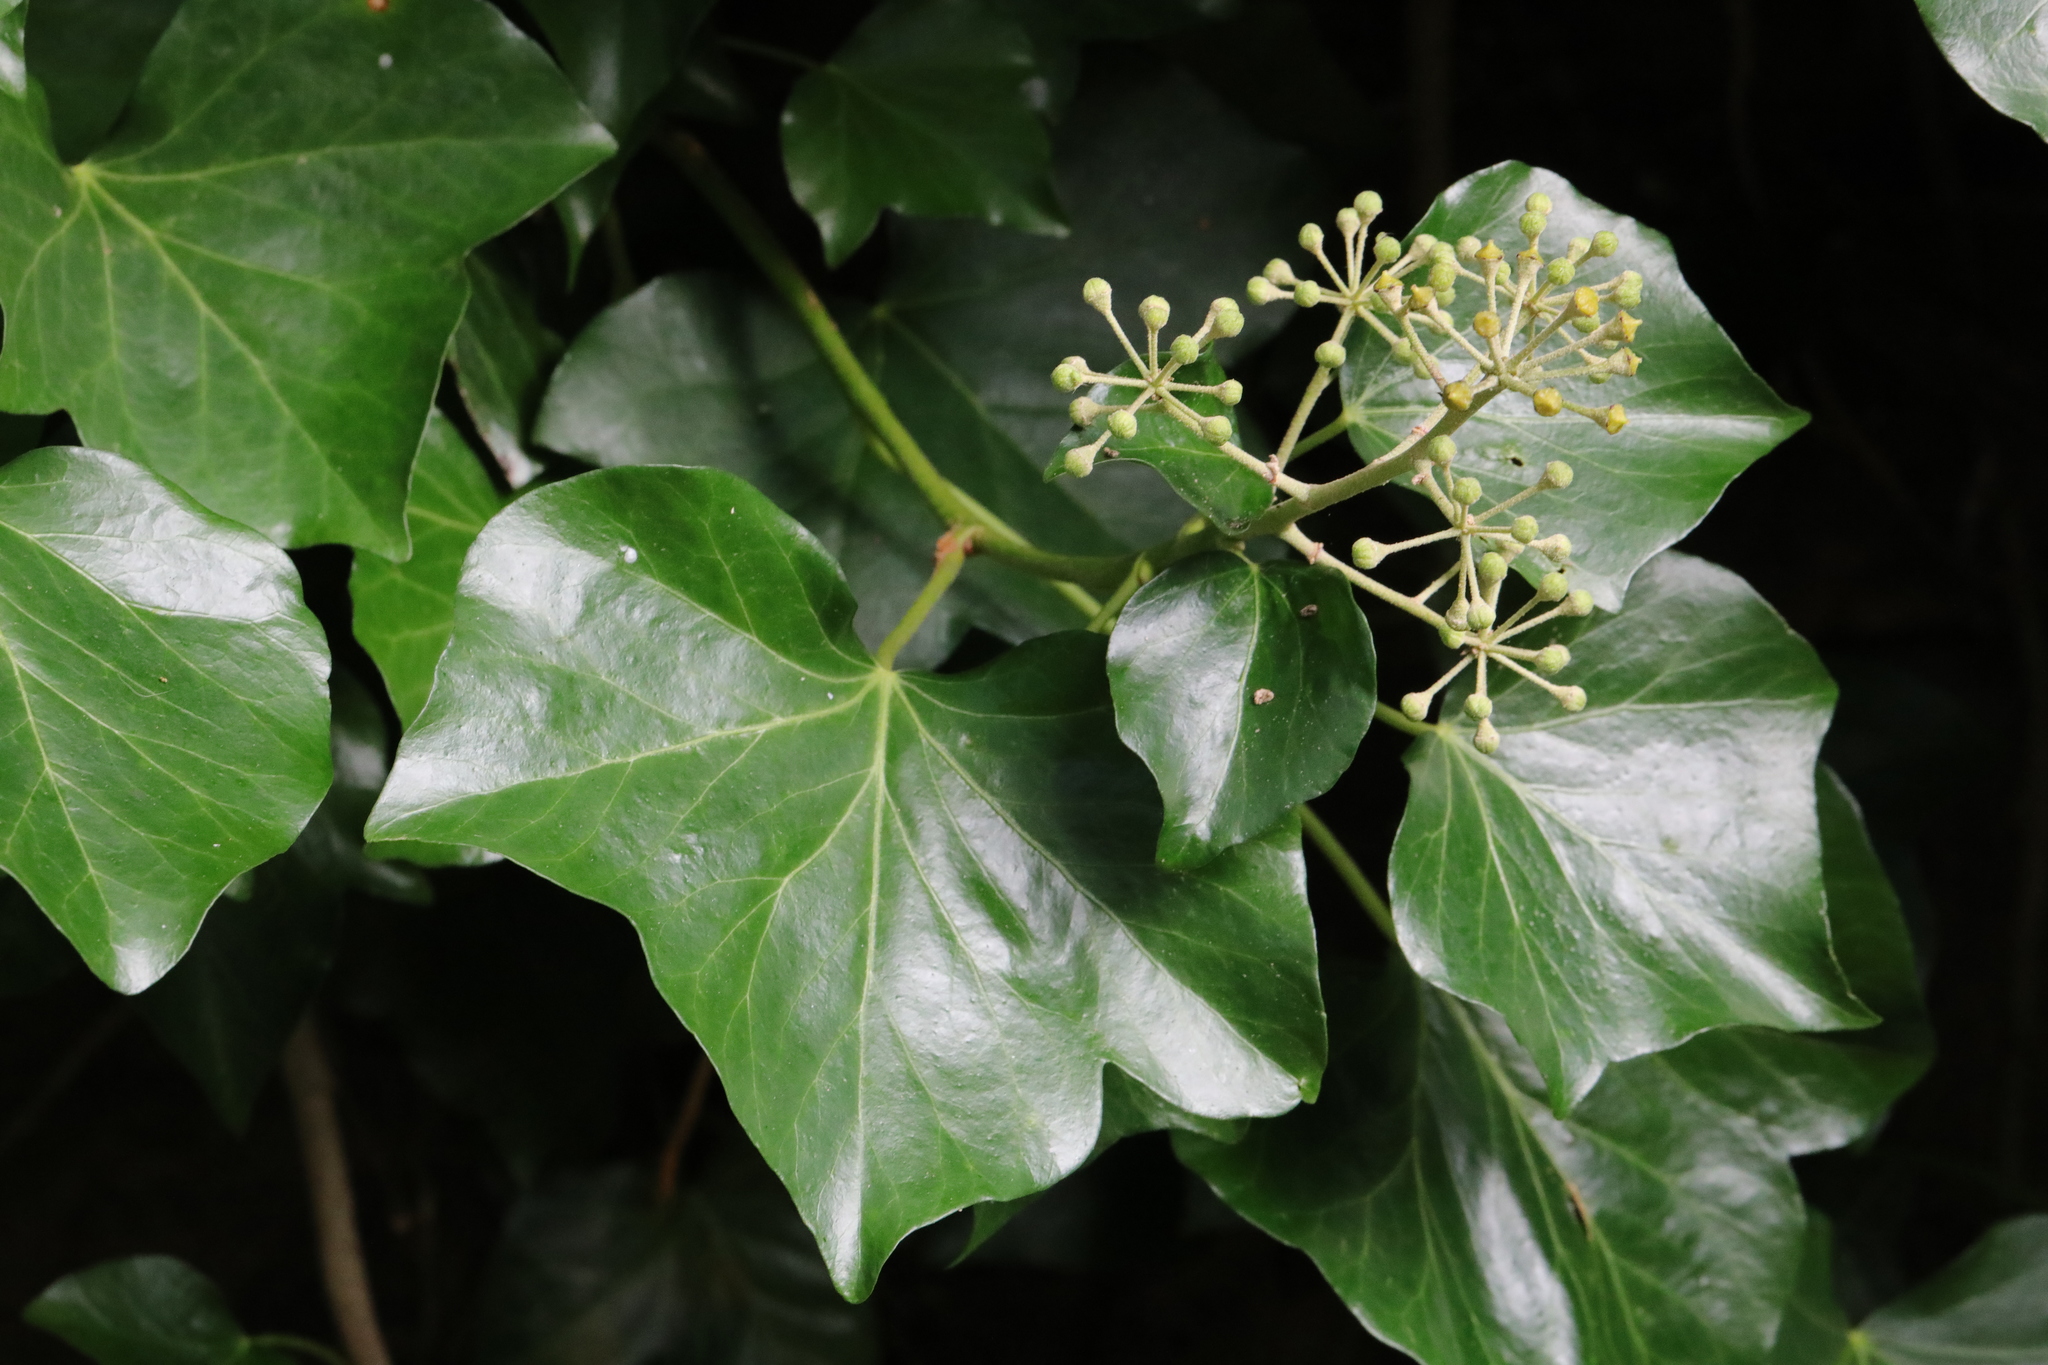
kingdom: Plantae
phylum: Tracheophyta
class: Magnoliopsida
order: Apiales
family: Araliaceae
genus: Hedera
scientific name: Hedera helix
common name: Ivy
